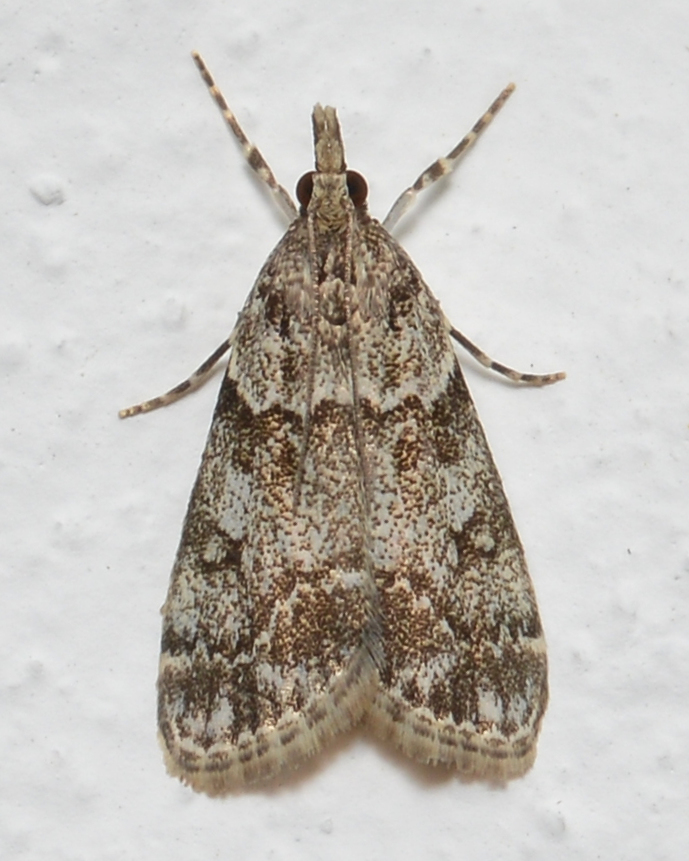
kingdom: Animalia
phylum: Arthropoda
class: Insecta
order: Lepidoptera
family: Crambidae
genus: Eudonia
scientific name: Eudonia lacustrata
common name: Little grey
